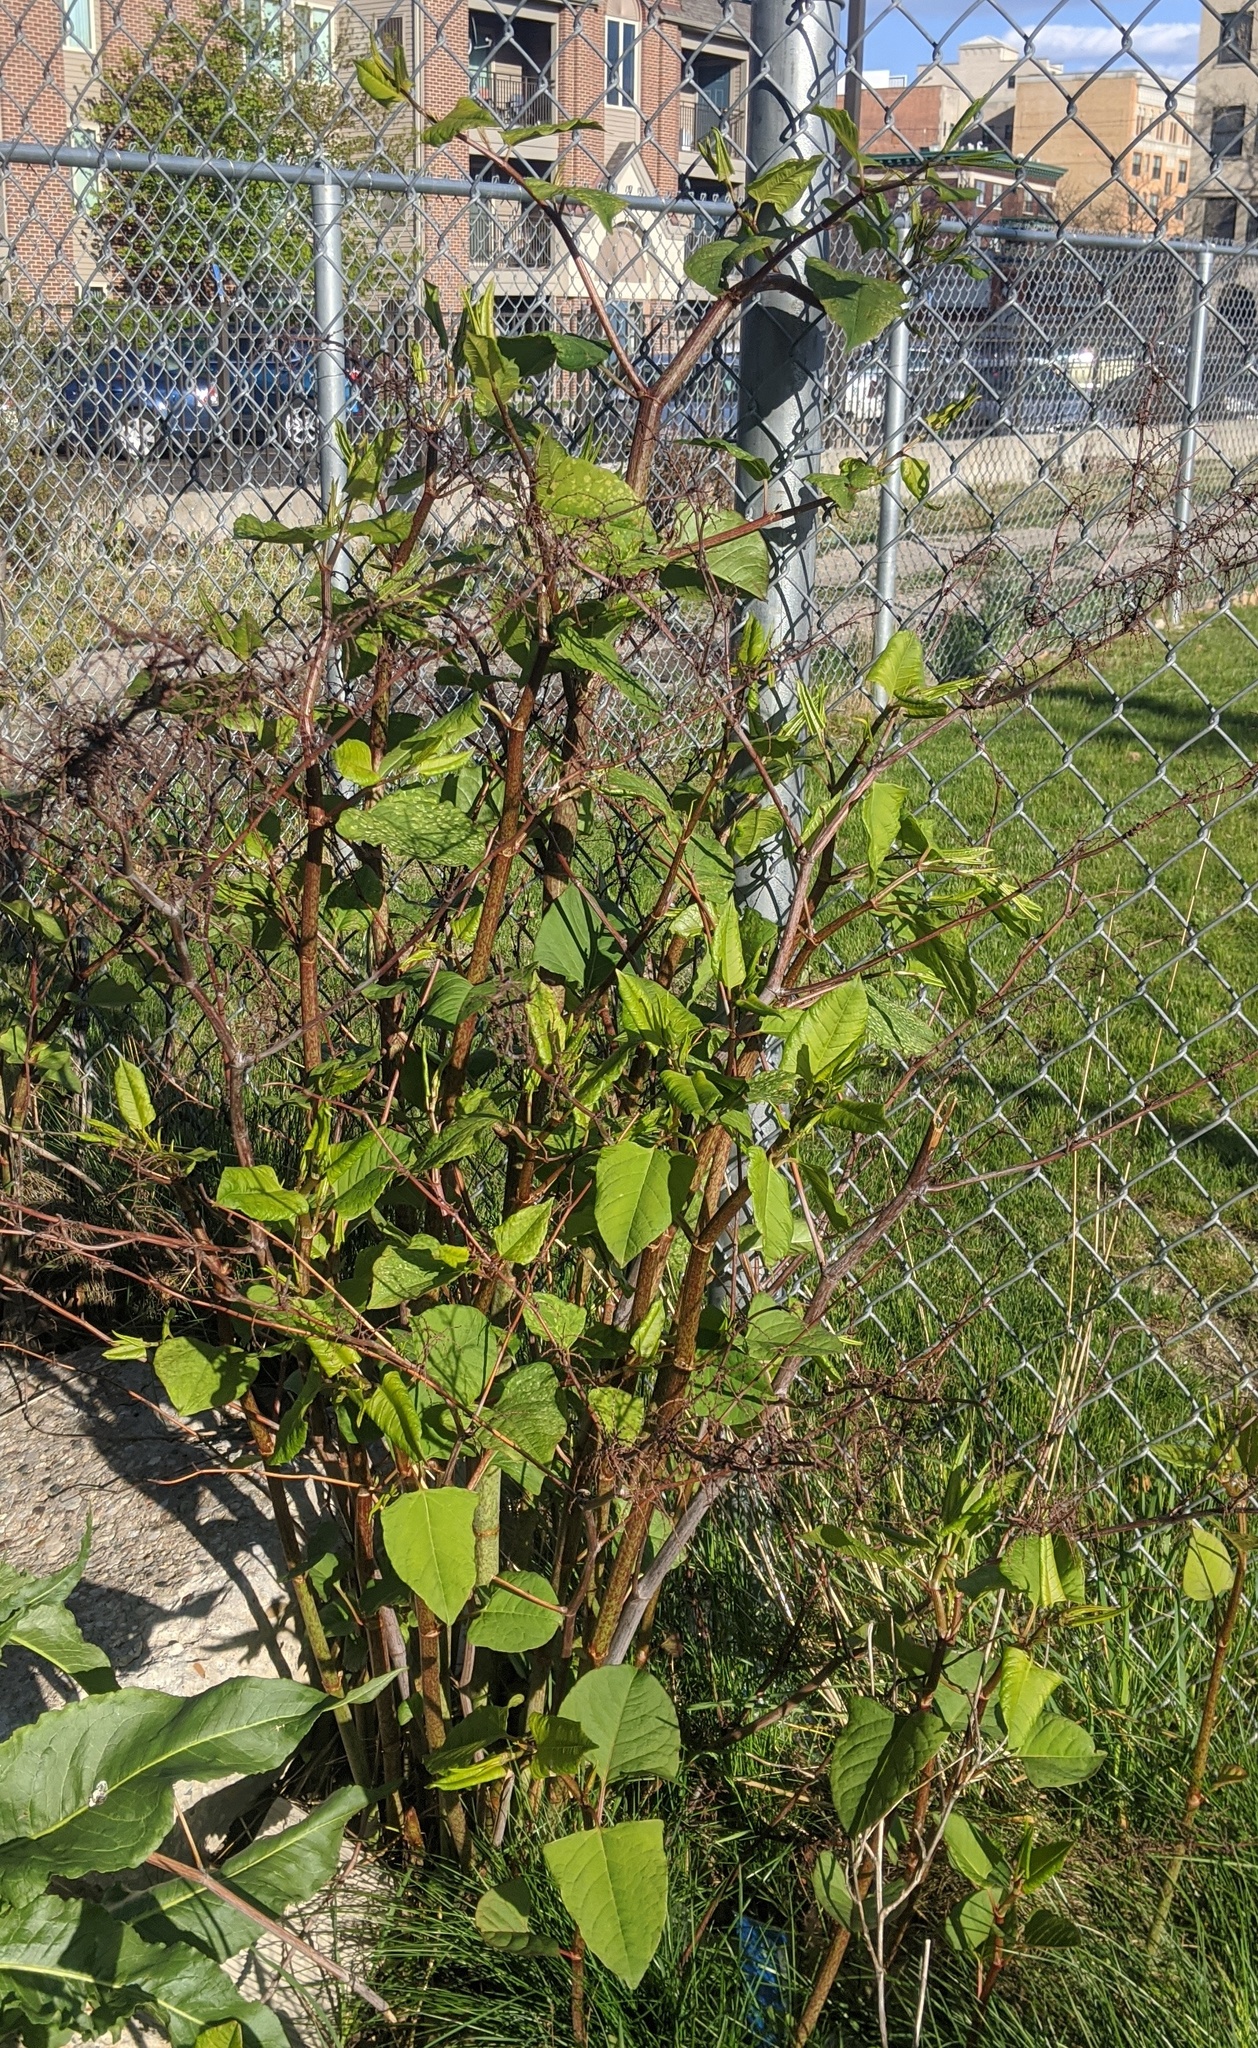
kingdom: Plantae
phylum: Tracheophyta
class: Magnoliopsida
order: Caryophyllales
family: Polygonaceae
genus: Reynoutria
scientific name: Reynoutria japonica
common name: Japanese knotweed
